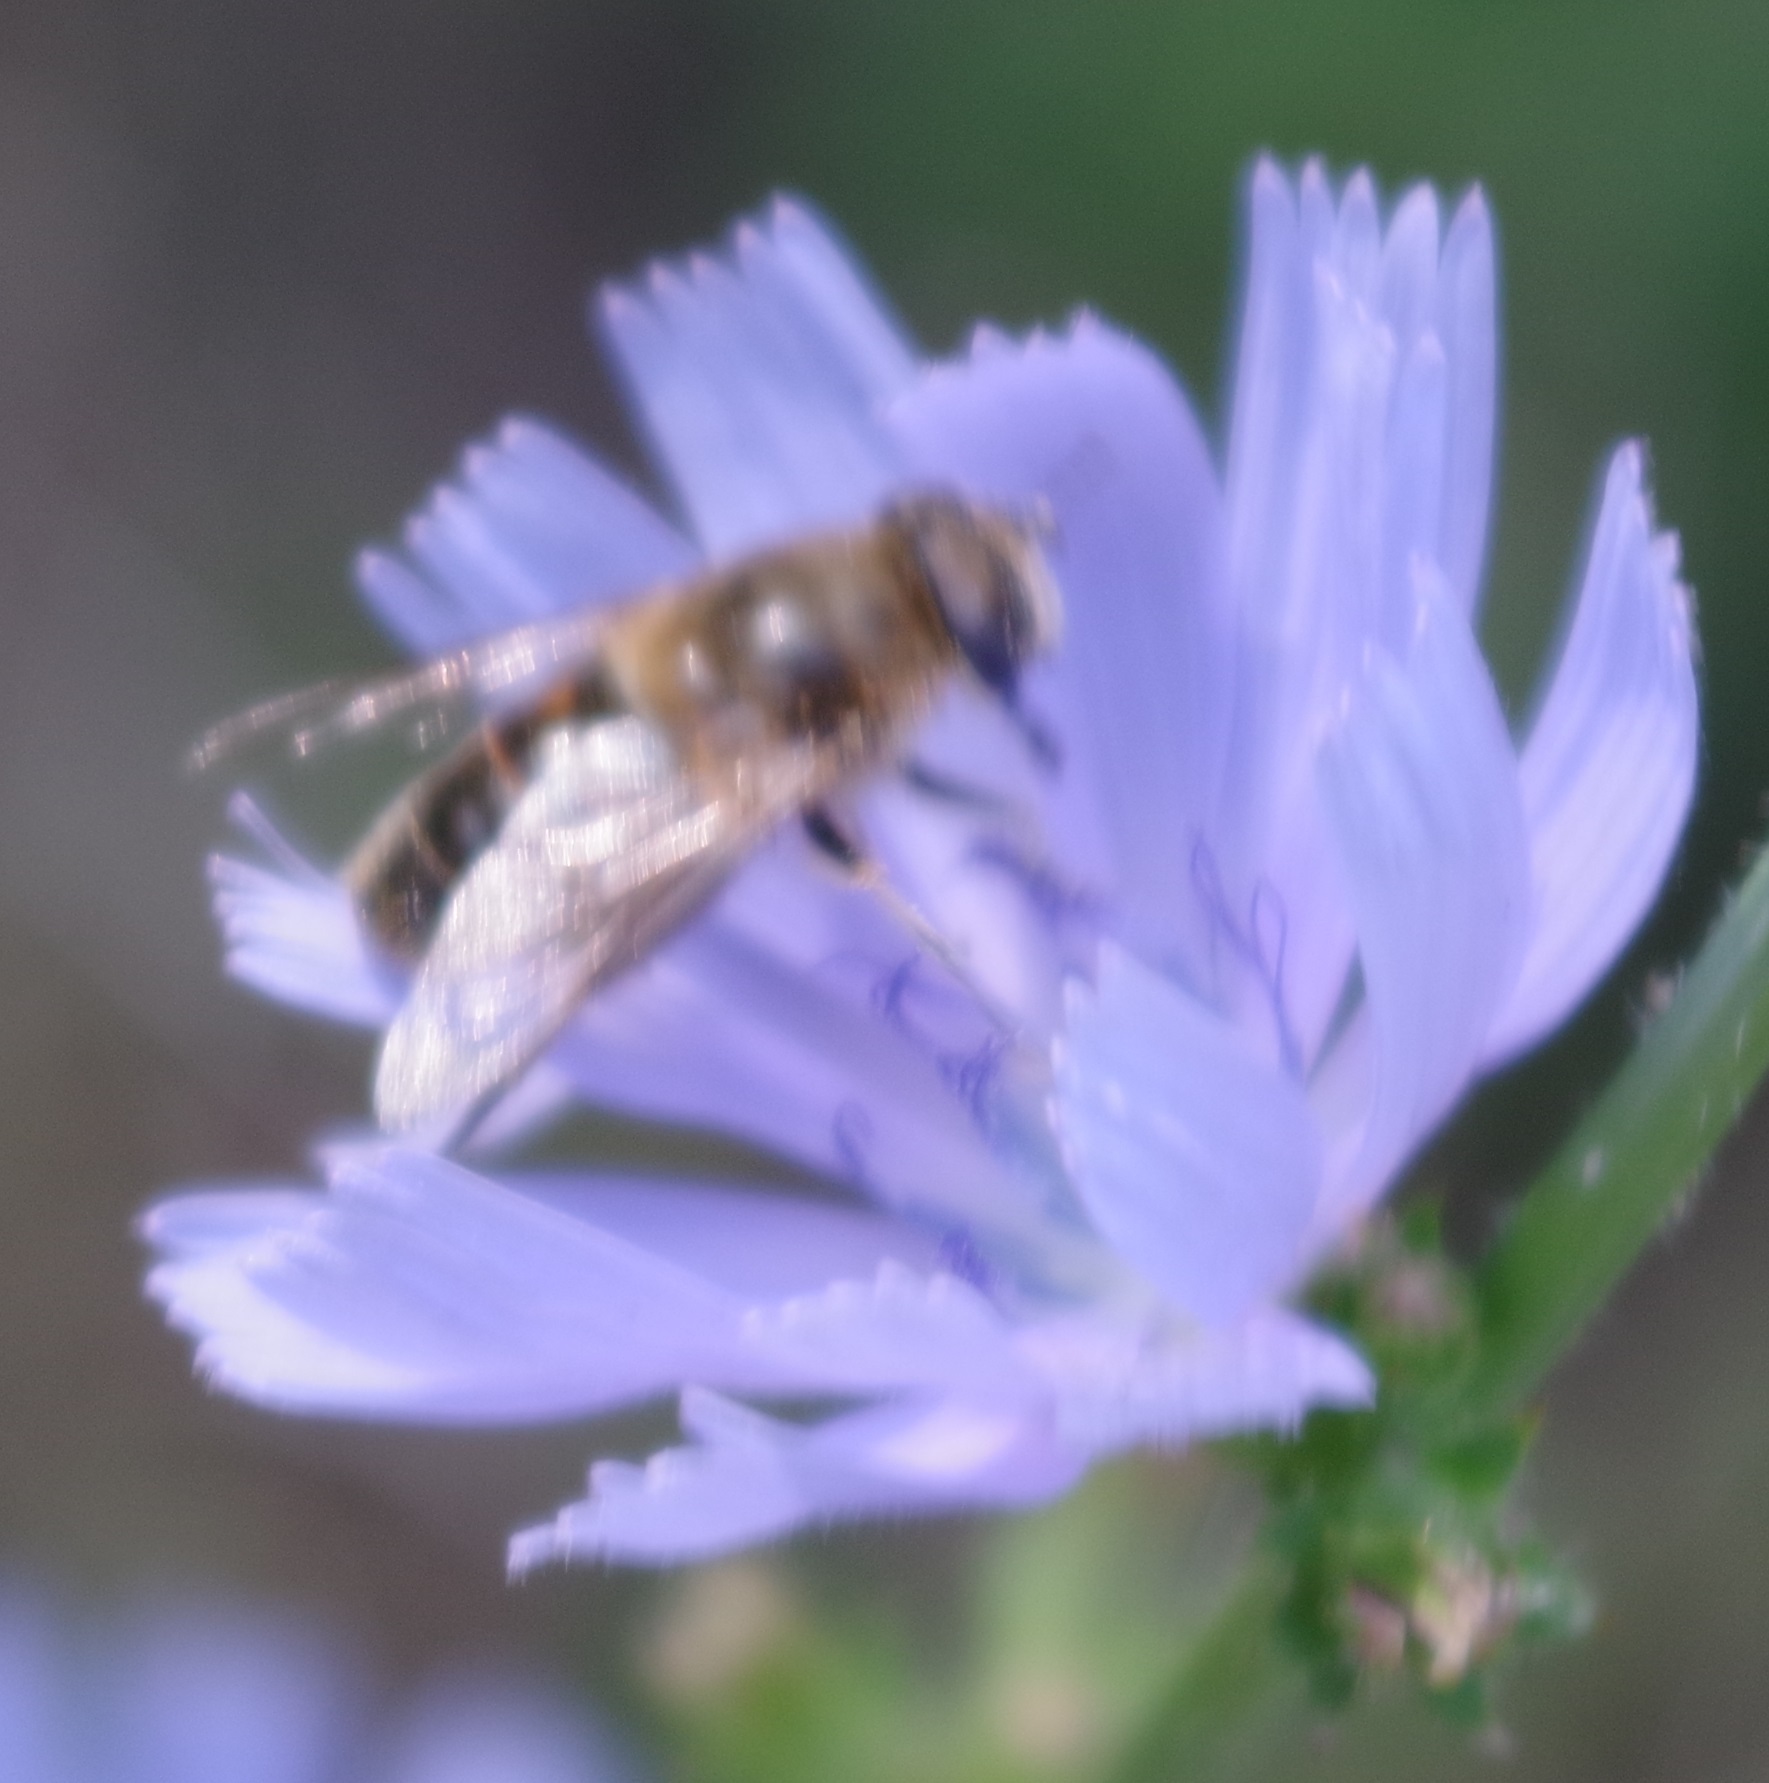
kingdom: Animalia
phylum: Arthropoda
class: Insecta
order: Diptera
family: Syrphidae
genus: Eristalis
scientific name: Eristalis tenax
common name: Drone fly
